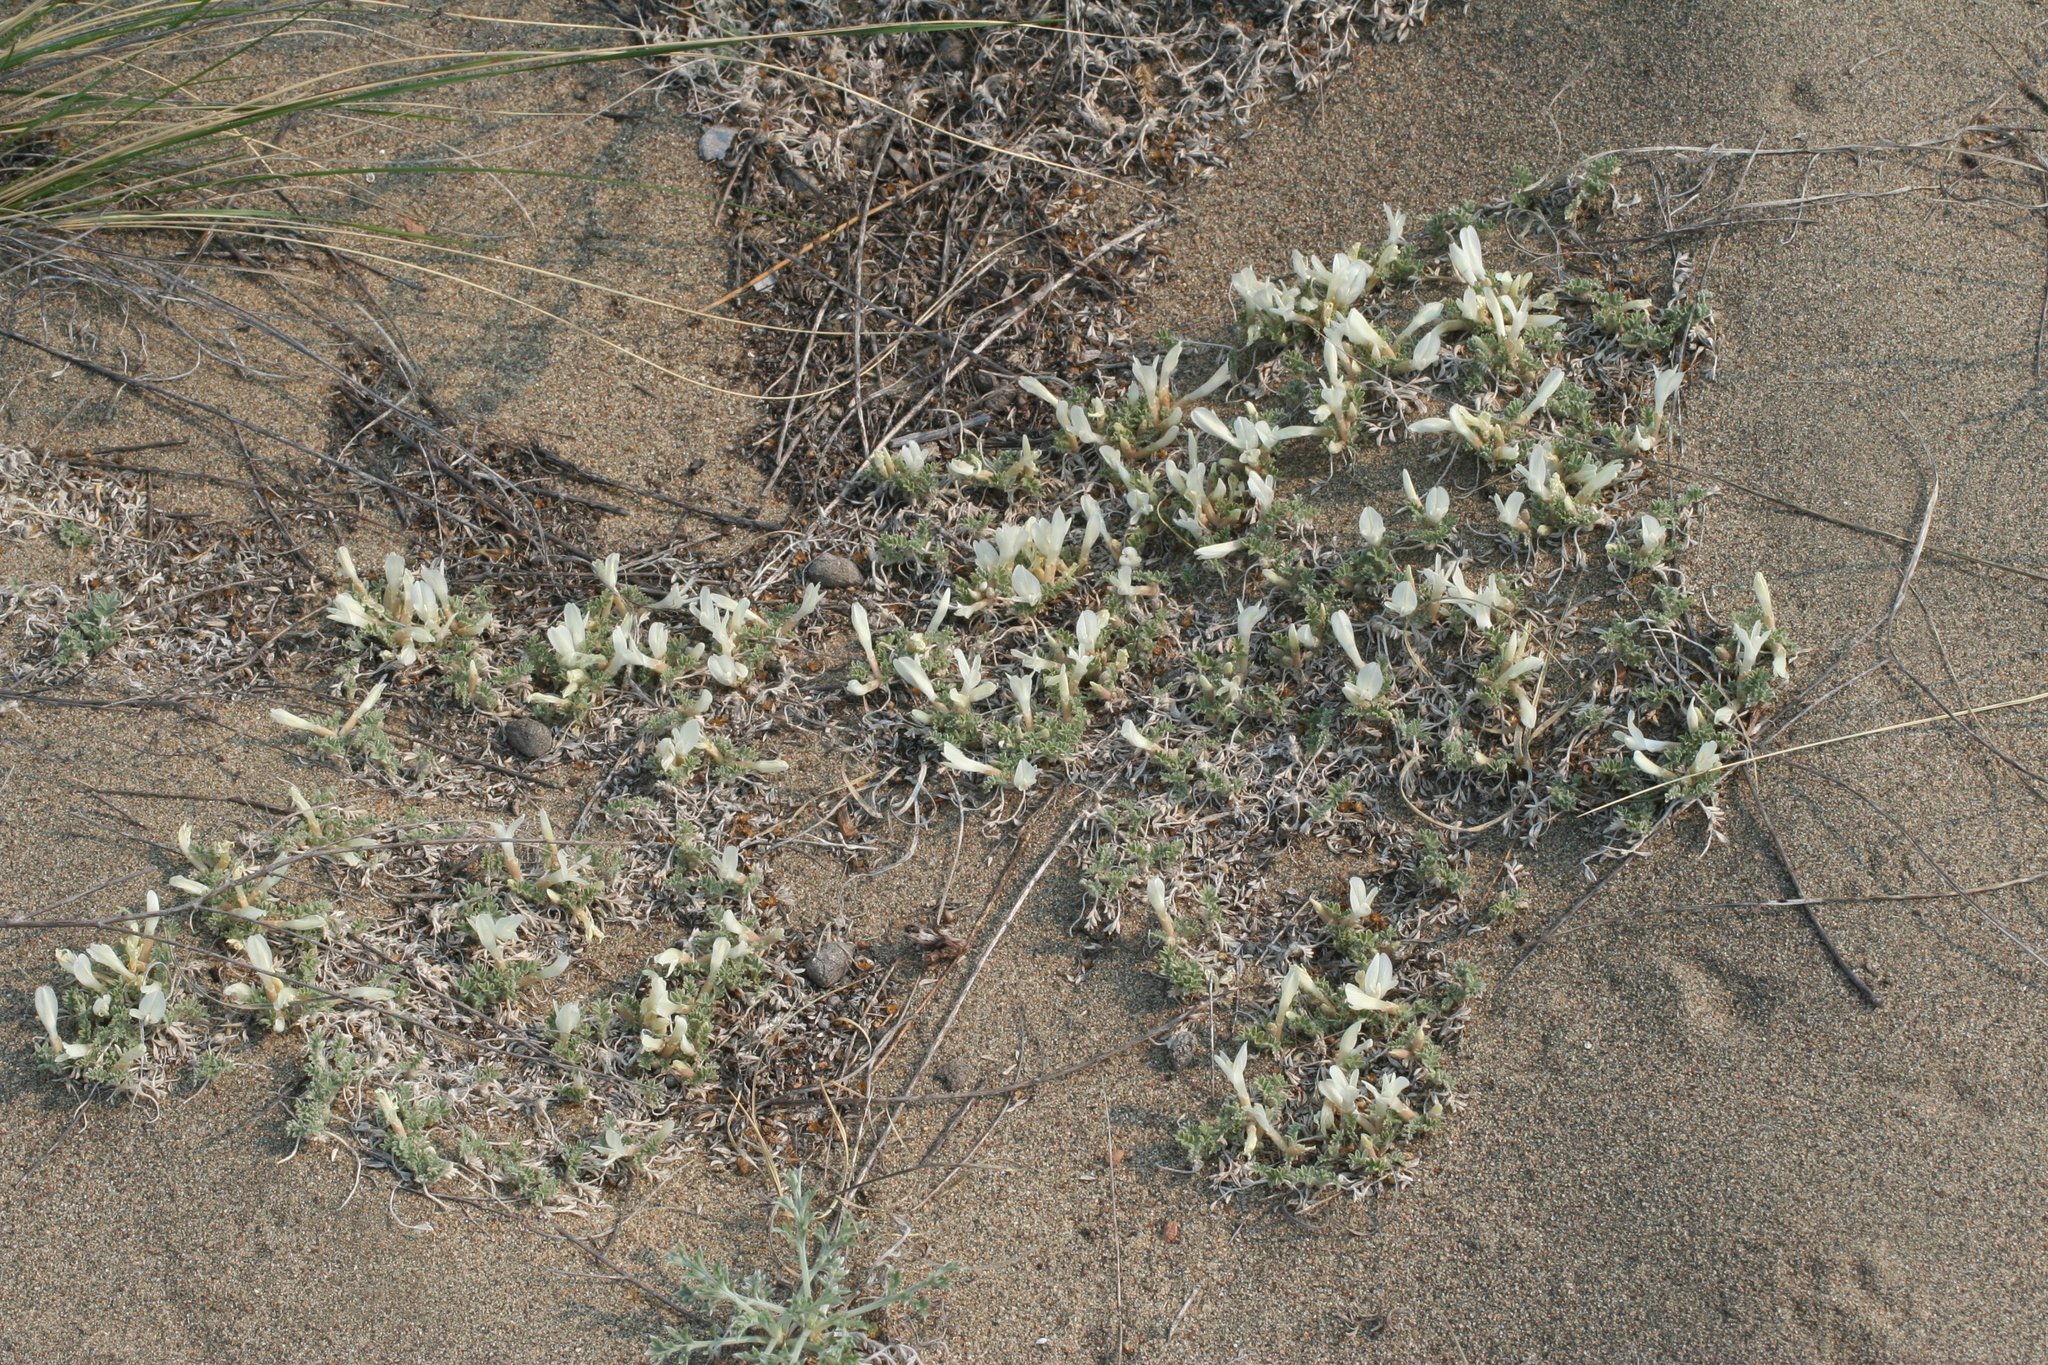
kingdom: Plantae
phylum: Tracheophyta
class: Magnoliopsida
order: Fabales
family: Fabaceae
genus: Astragalus
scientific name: Astragalus teskhemicus
